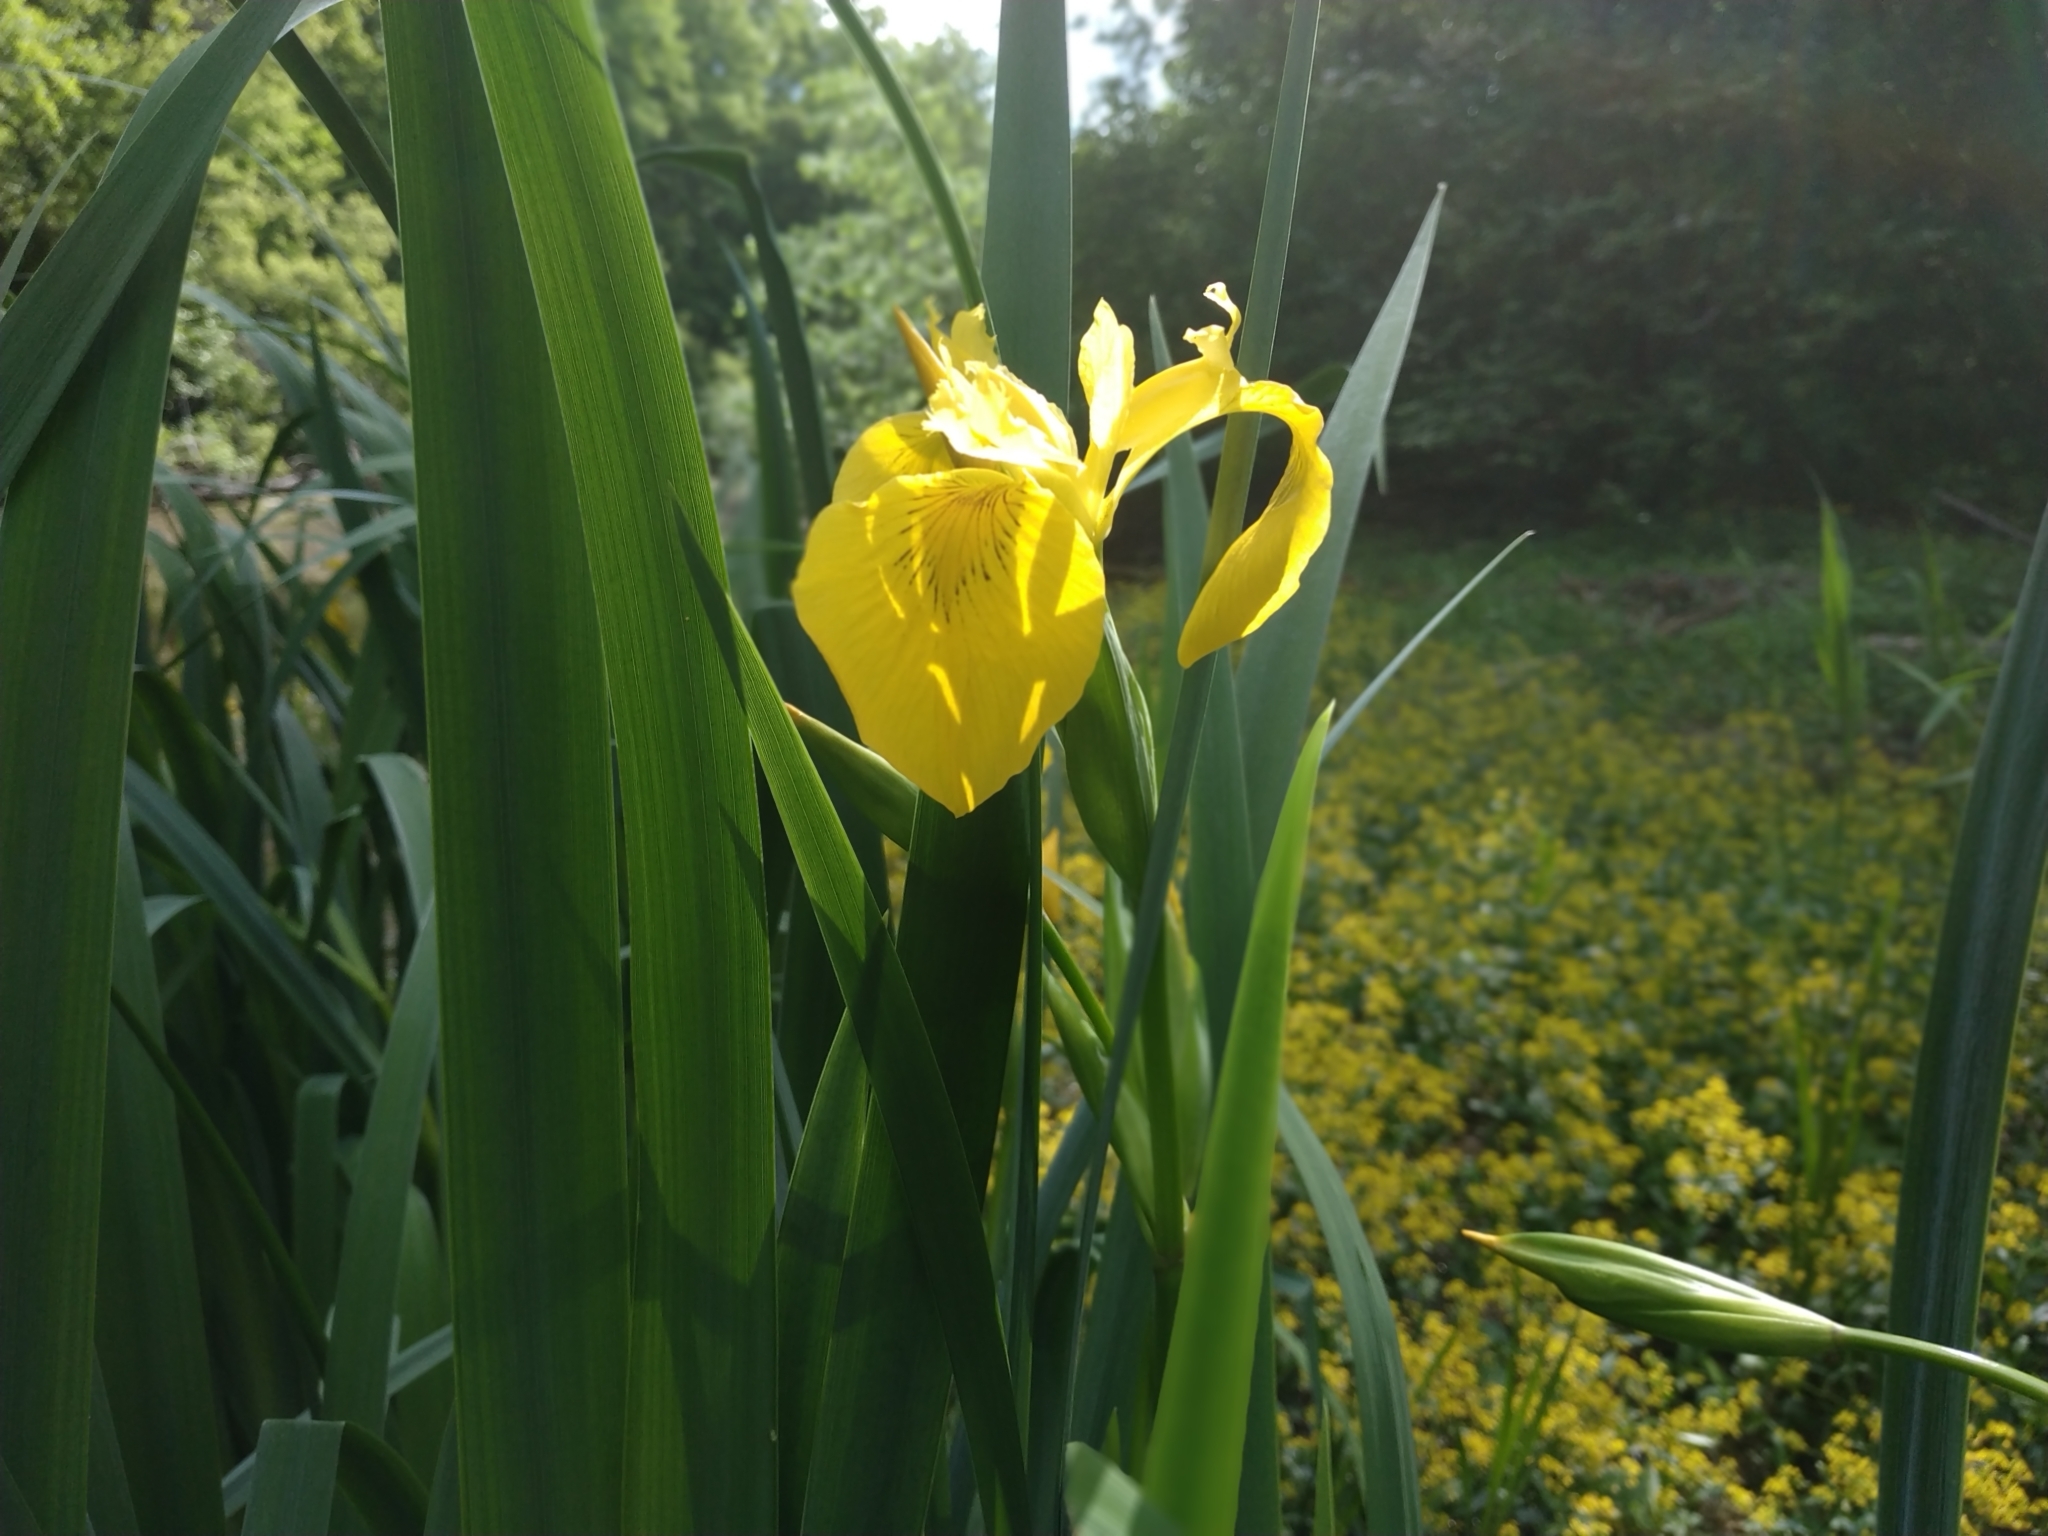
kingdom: Plantae
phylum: Tracheophyta
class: Liliopsida
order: Asparagales
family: Iridaceae
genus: Iris
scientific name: Iris pseudacorus
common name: Yellow flag
